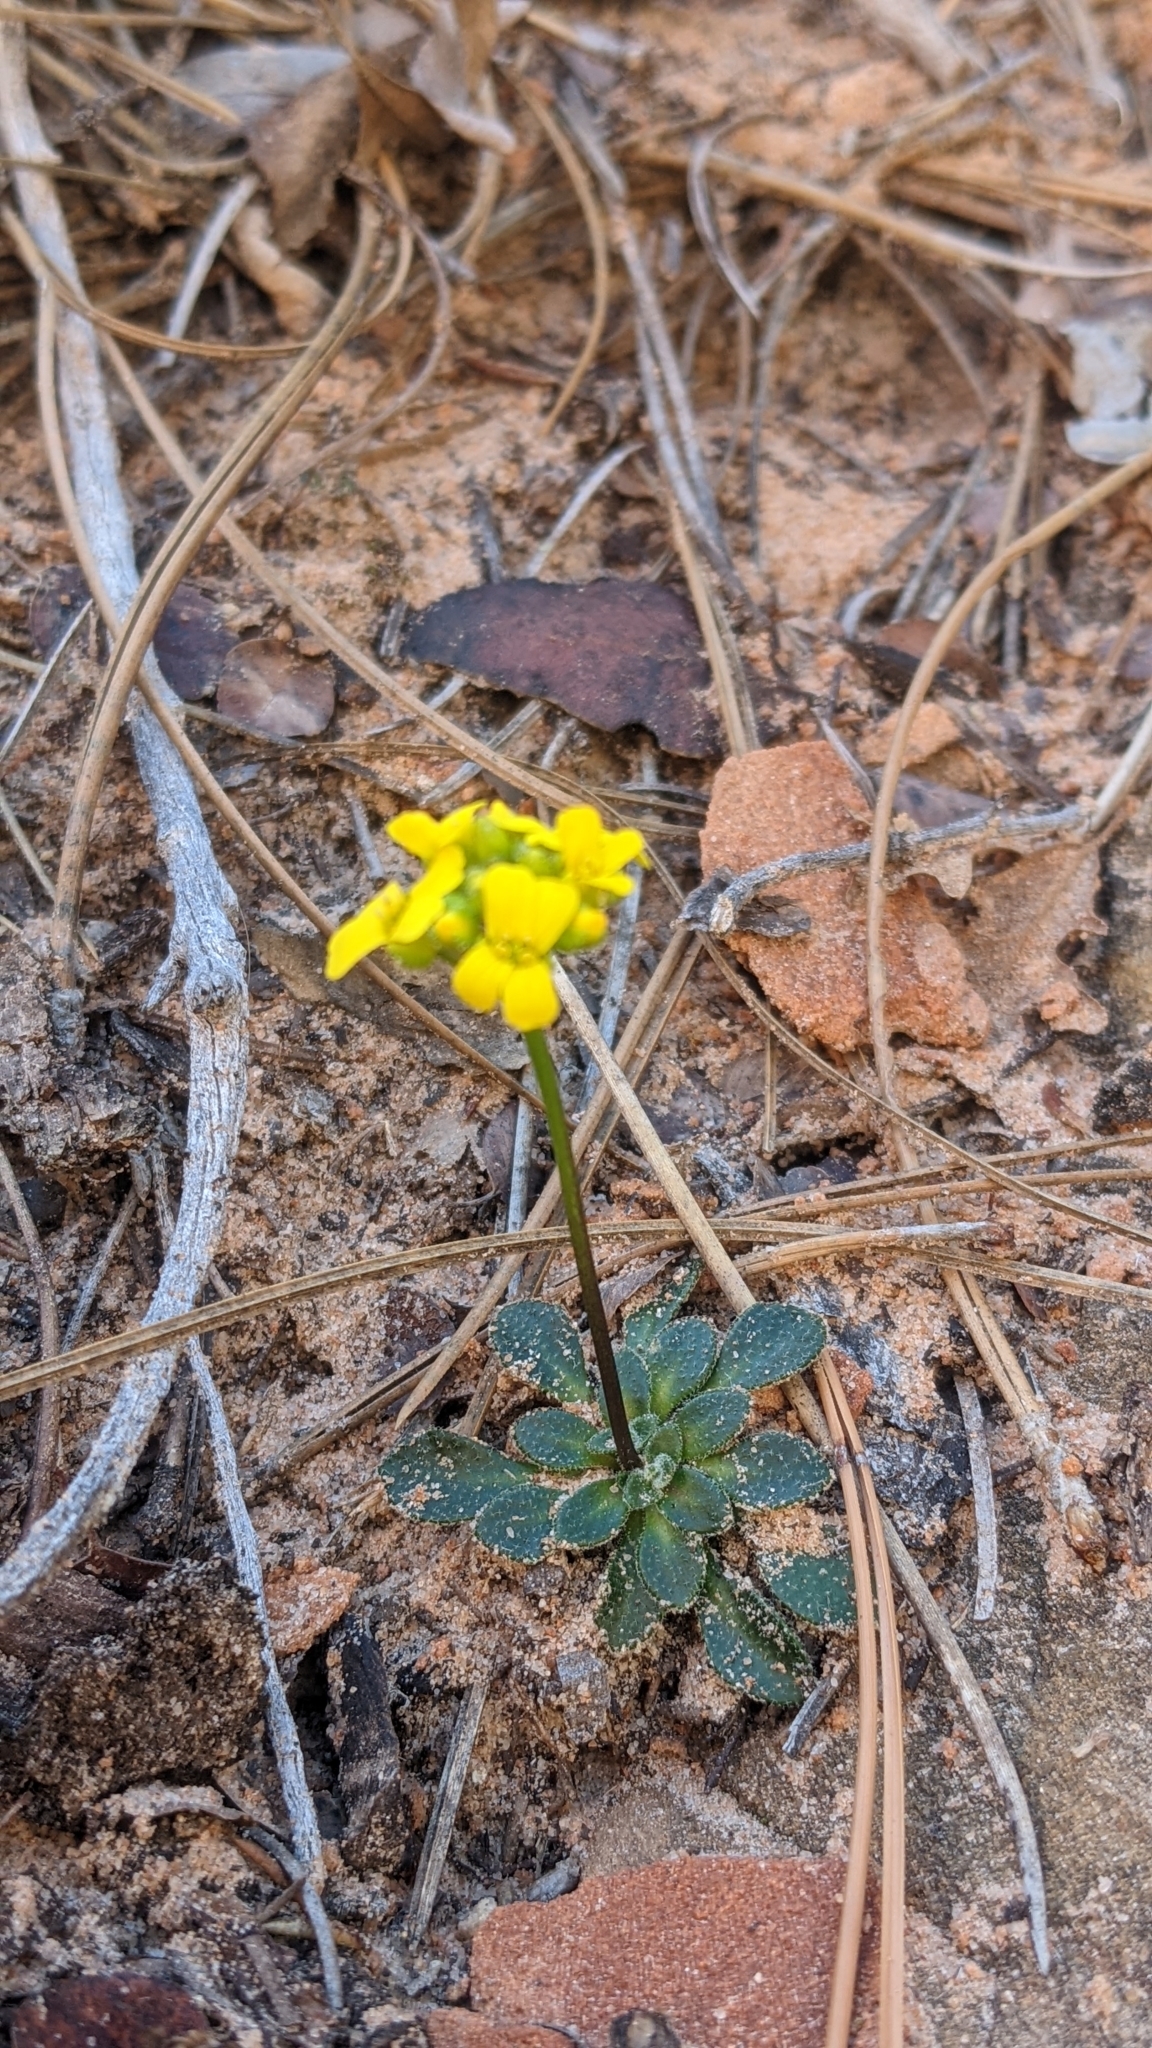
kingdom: Plantae
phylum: Tracheophyta
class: Magnoliopsida
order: Brassicales
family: Brassicaceae
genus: Draba
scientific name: Draba zionensis
